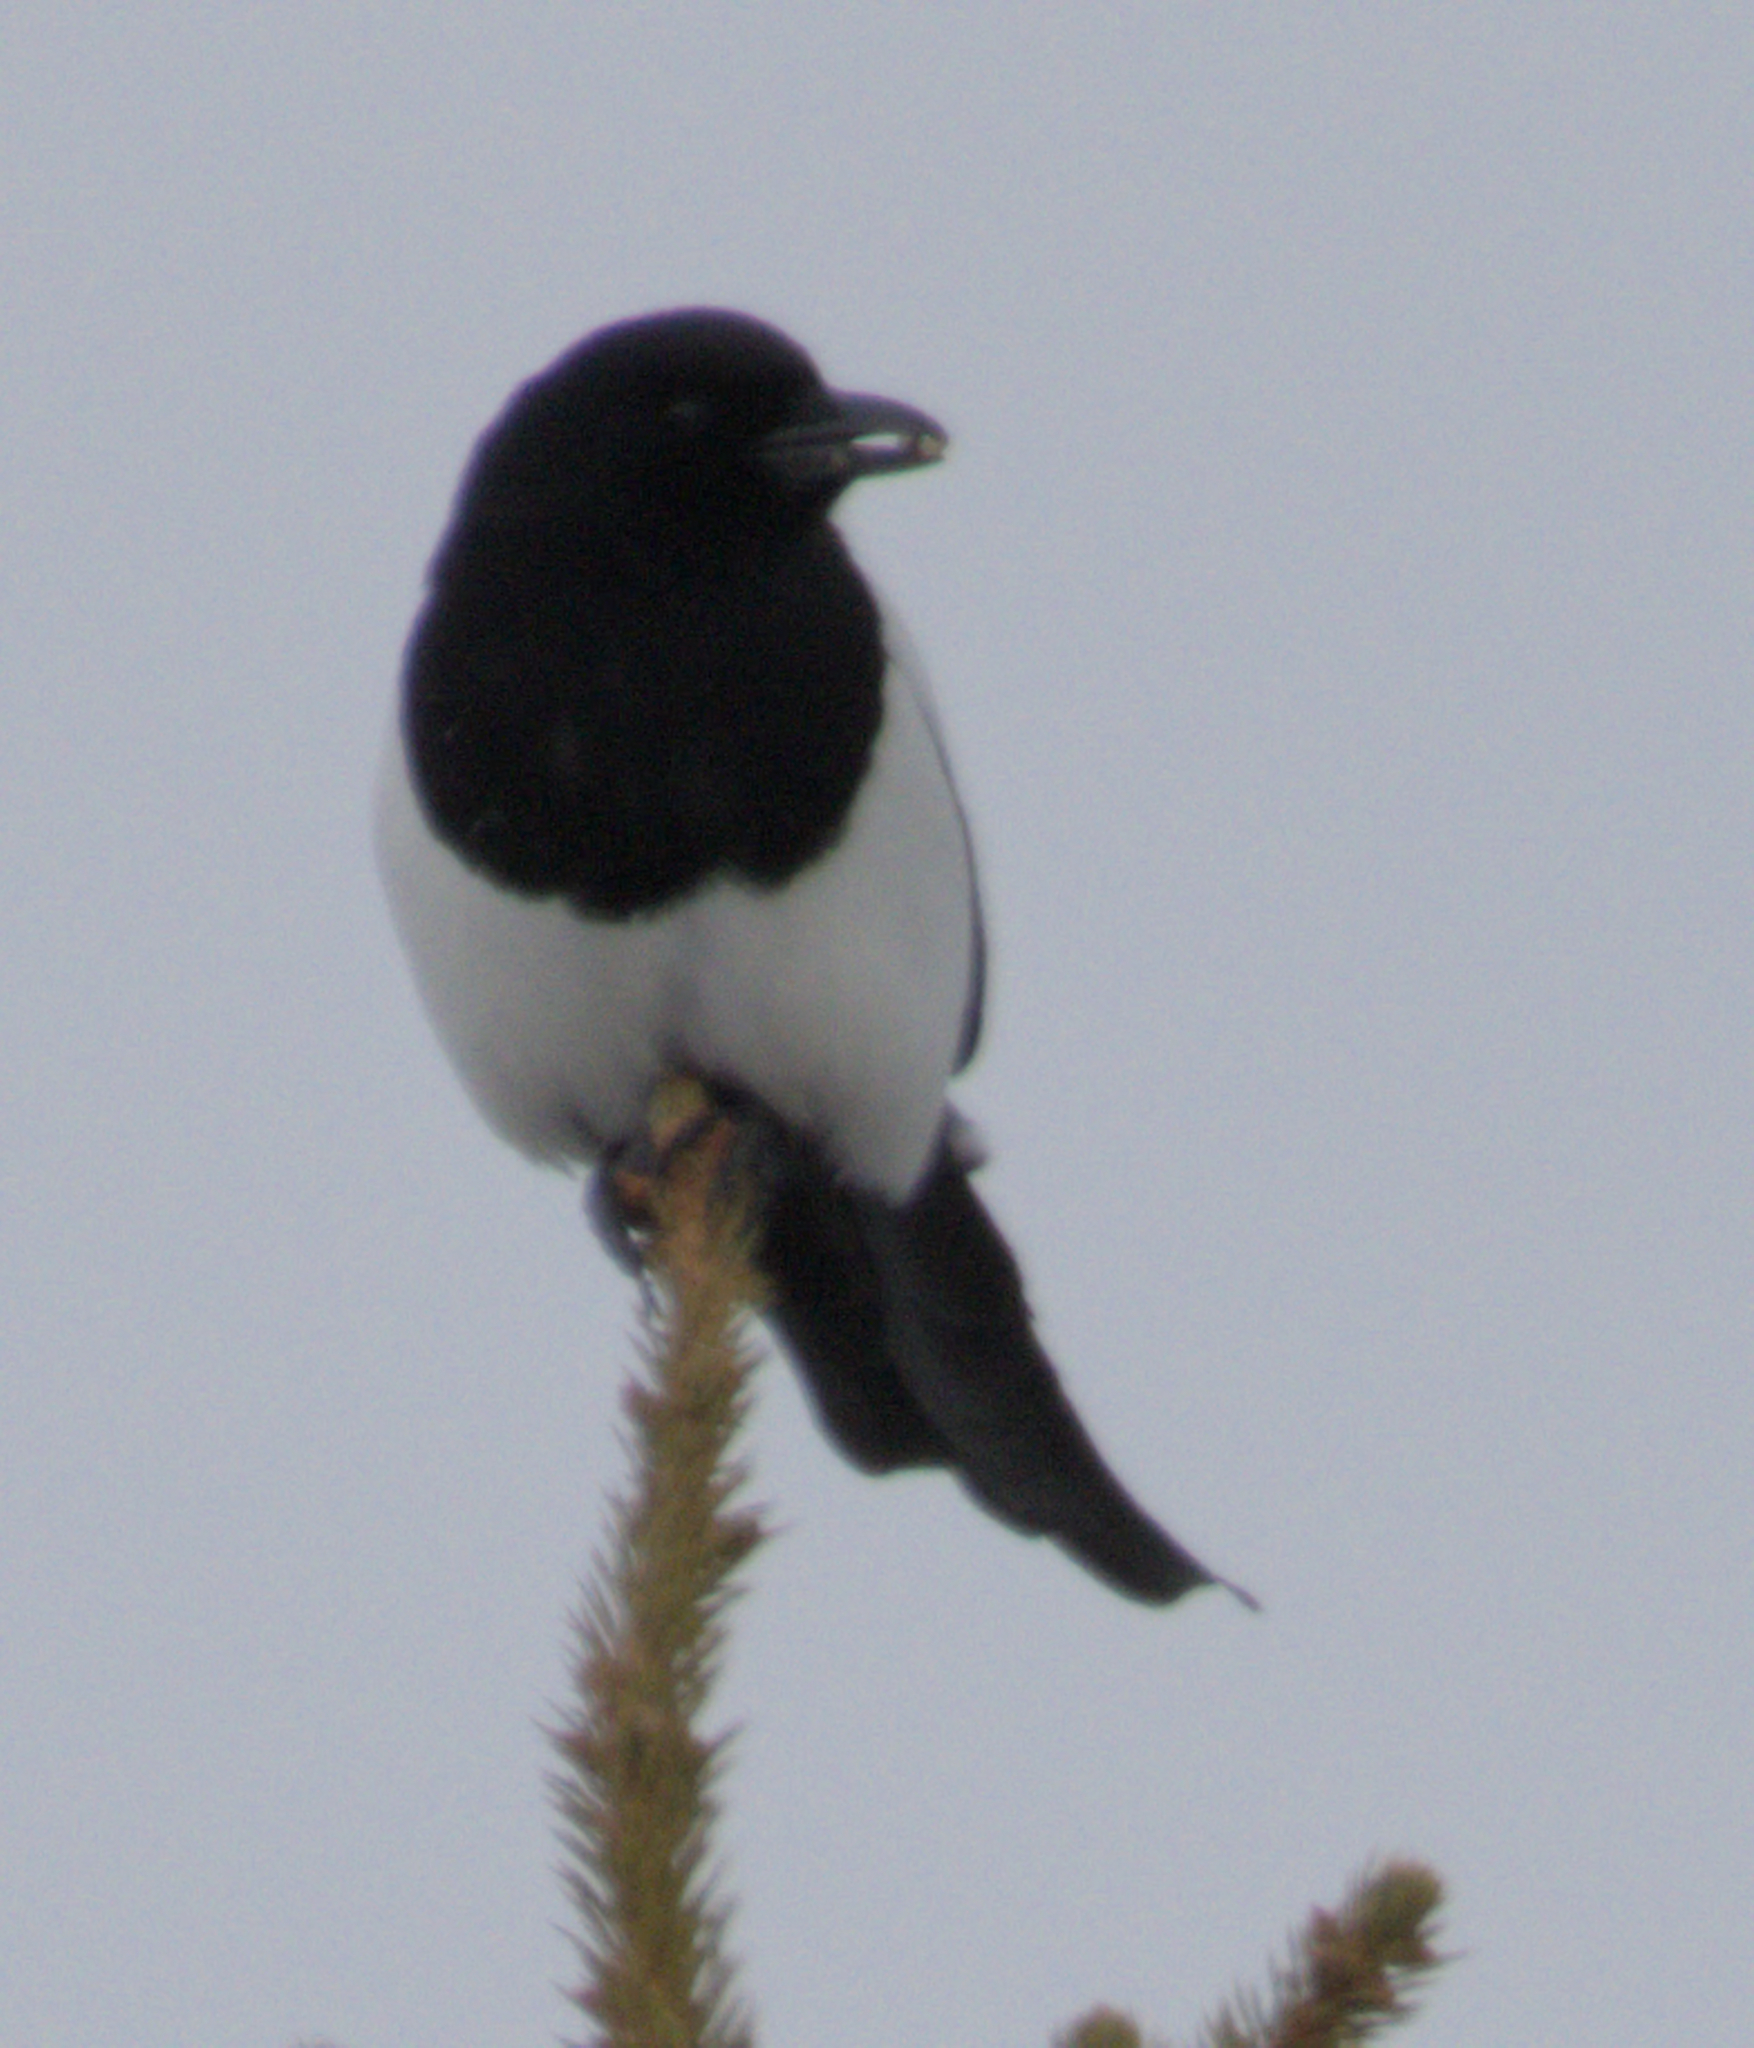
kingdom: Animalia
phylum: Chordata
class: Aves
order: Passeriformes
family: Corvidae
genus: Pica
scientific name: Pica hudsonia
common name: Black-billed magpie
